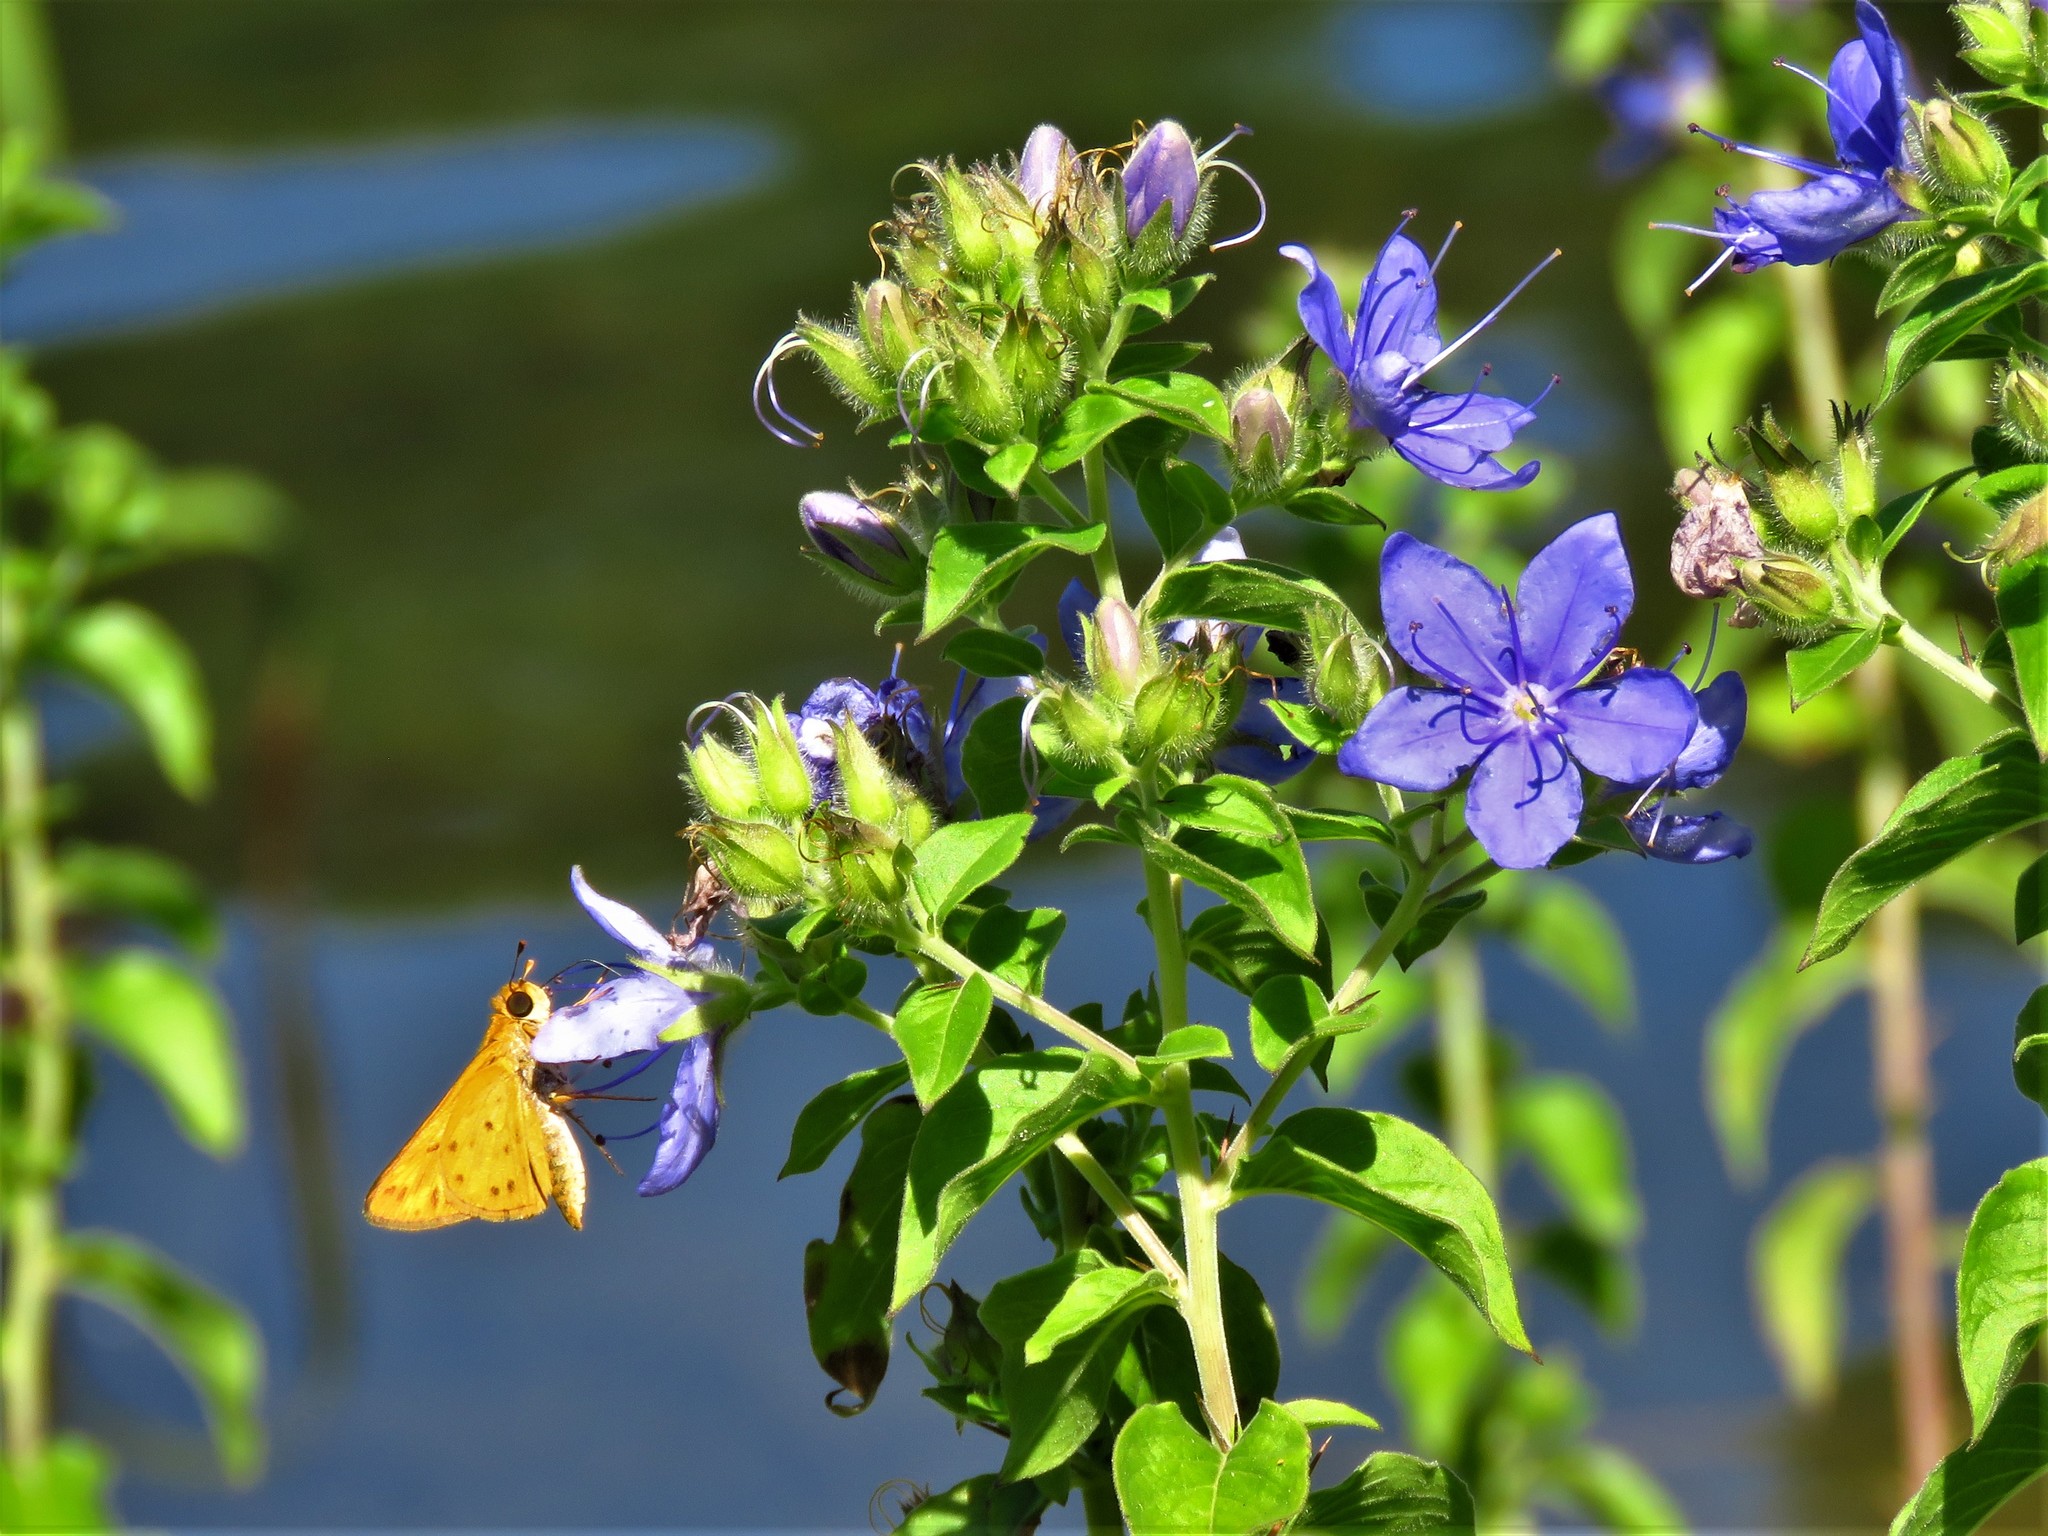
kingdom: Plantae
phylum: Tracheophyta
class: Magnoliopsida
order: Solanales
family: Hydroleaceae
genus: Hydrolea
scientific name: Hydrolea ovata
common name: Ovate false fiddleleaf
